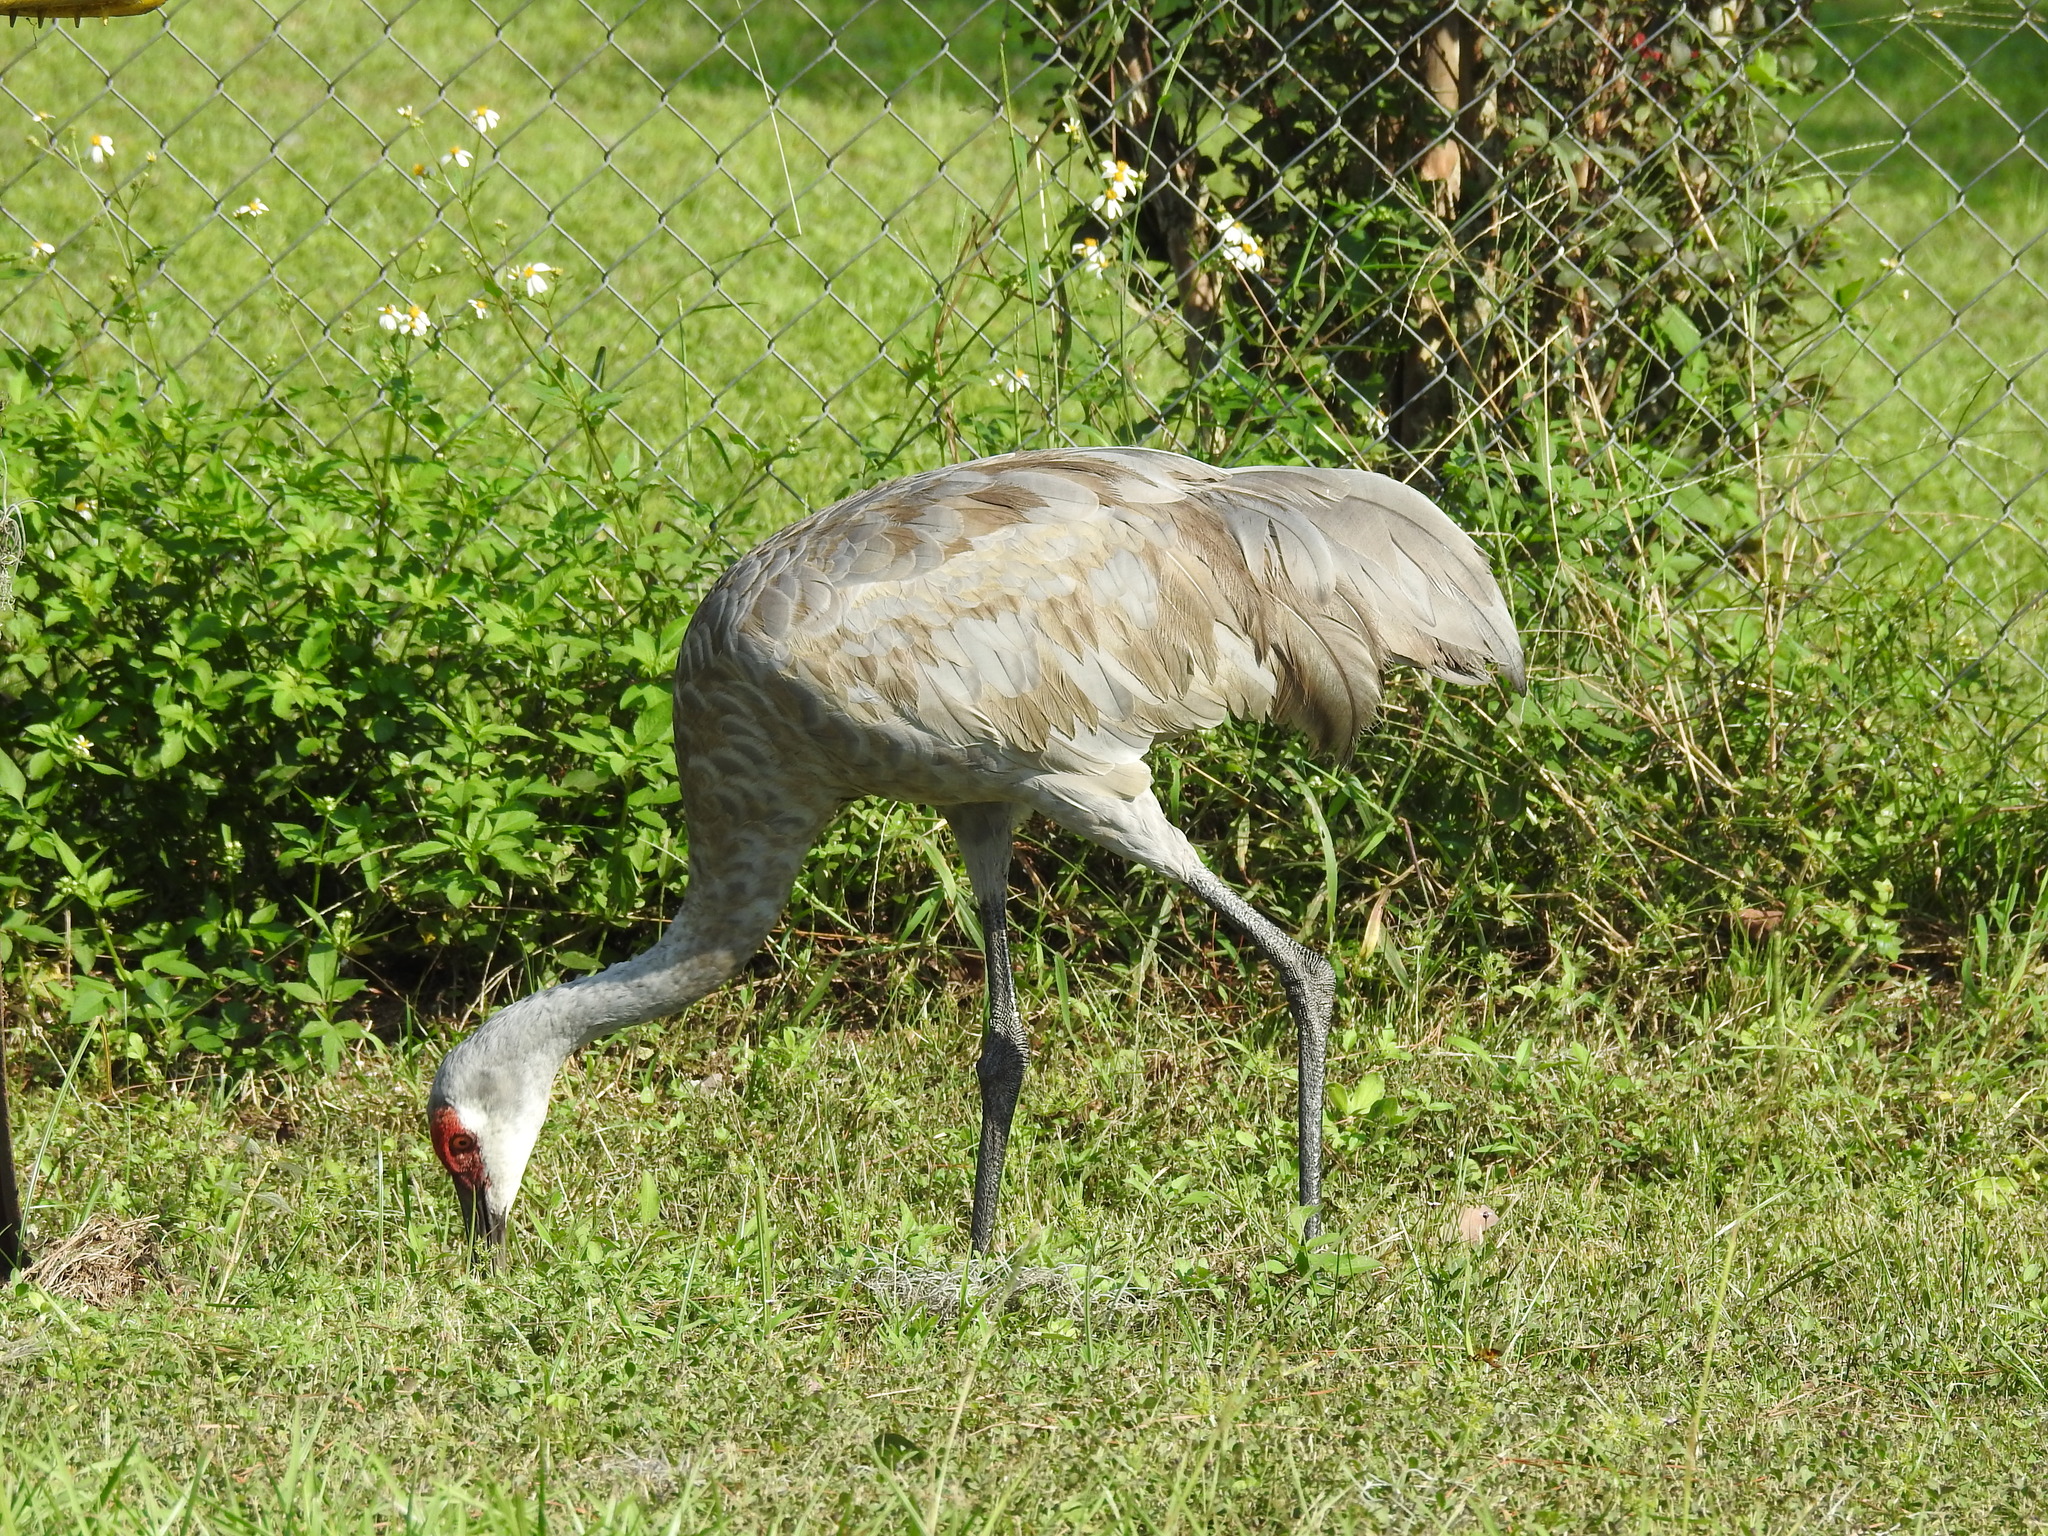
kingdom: Animalia
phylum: Chordata
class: Aves
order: Gruiformes
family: Gruidae
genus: Grus
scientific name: Grus canadensis
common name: Sandhill crane
